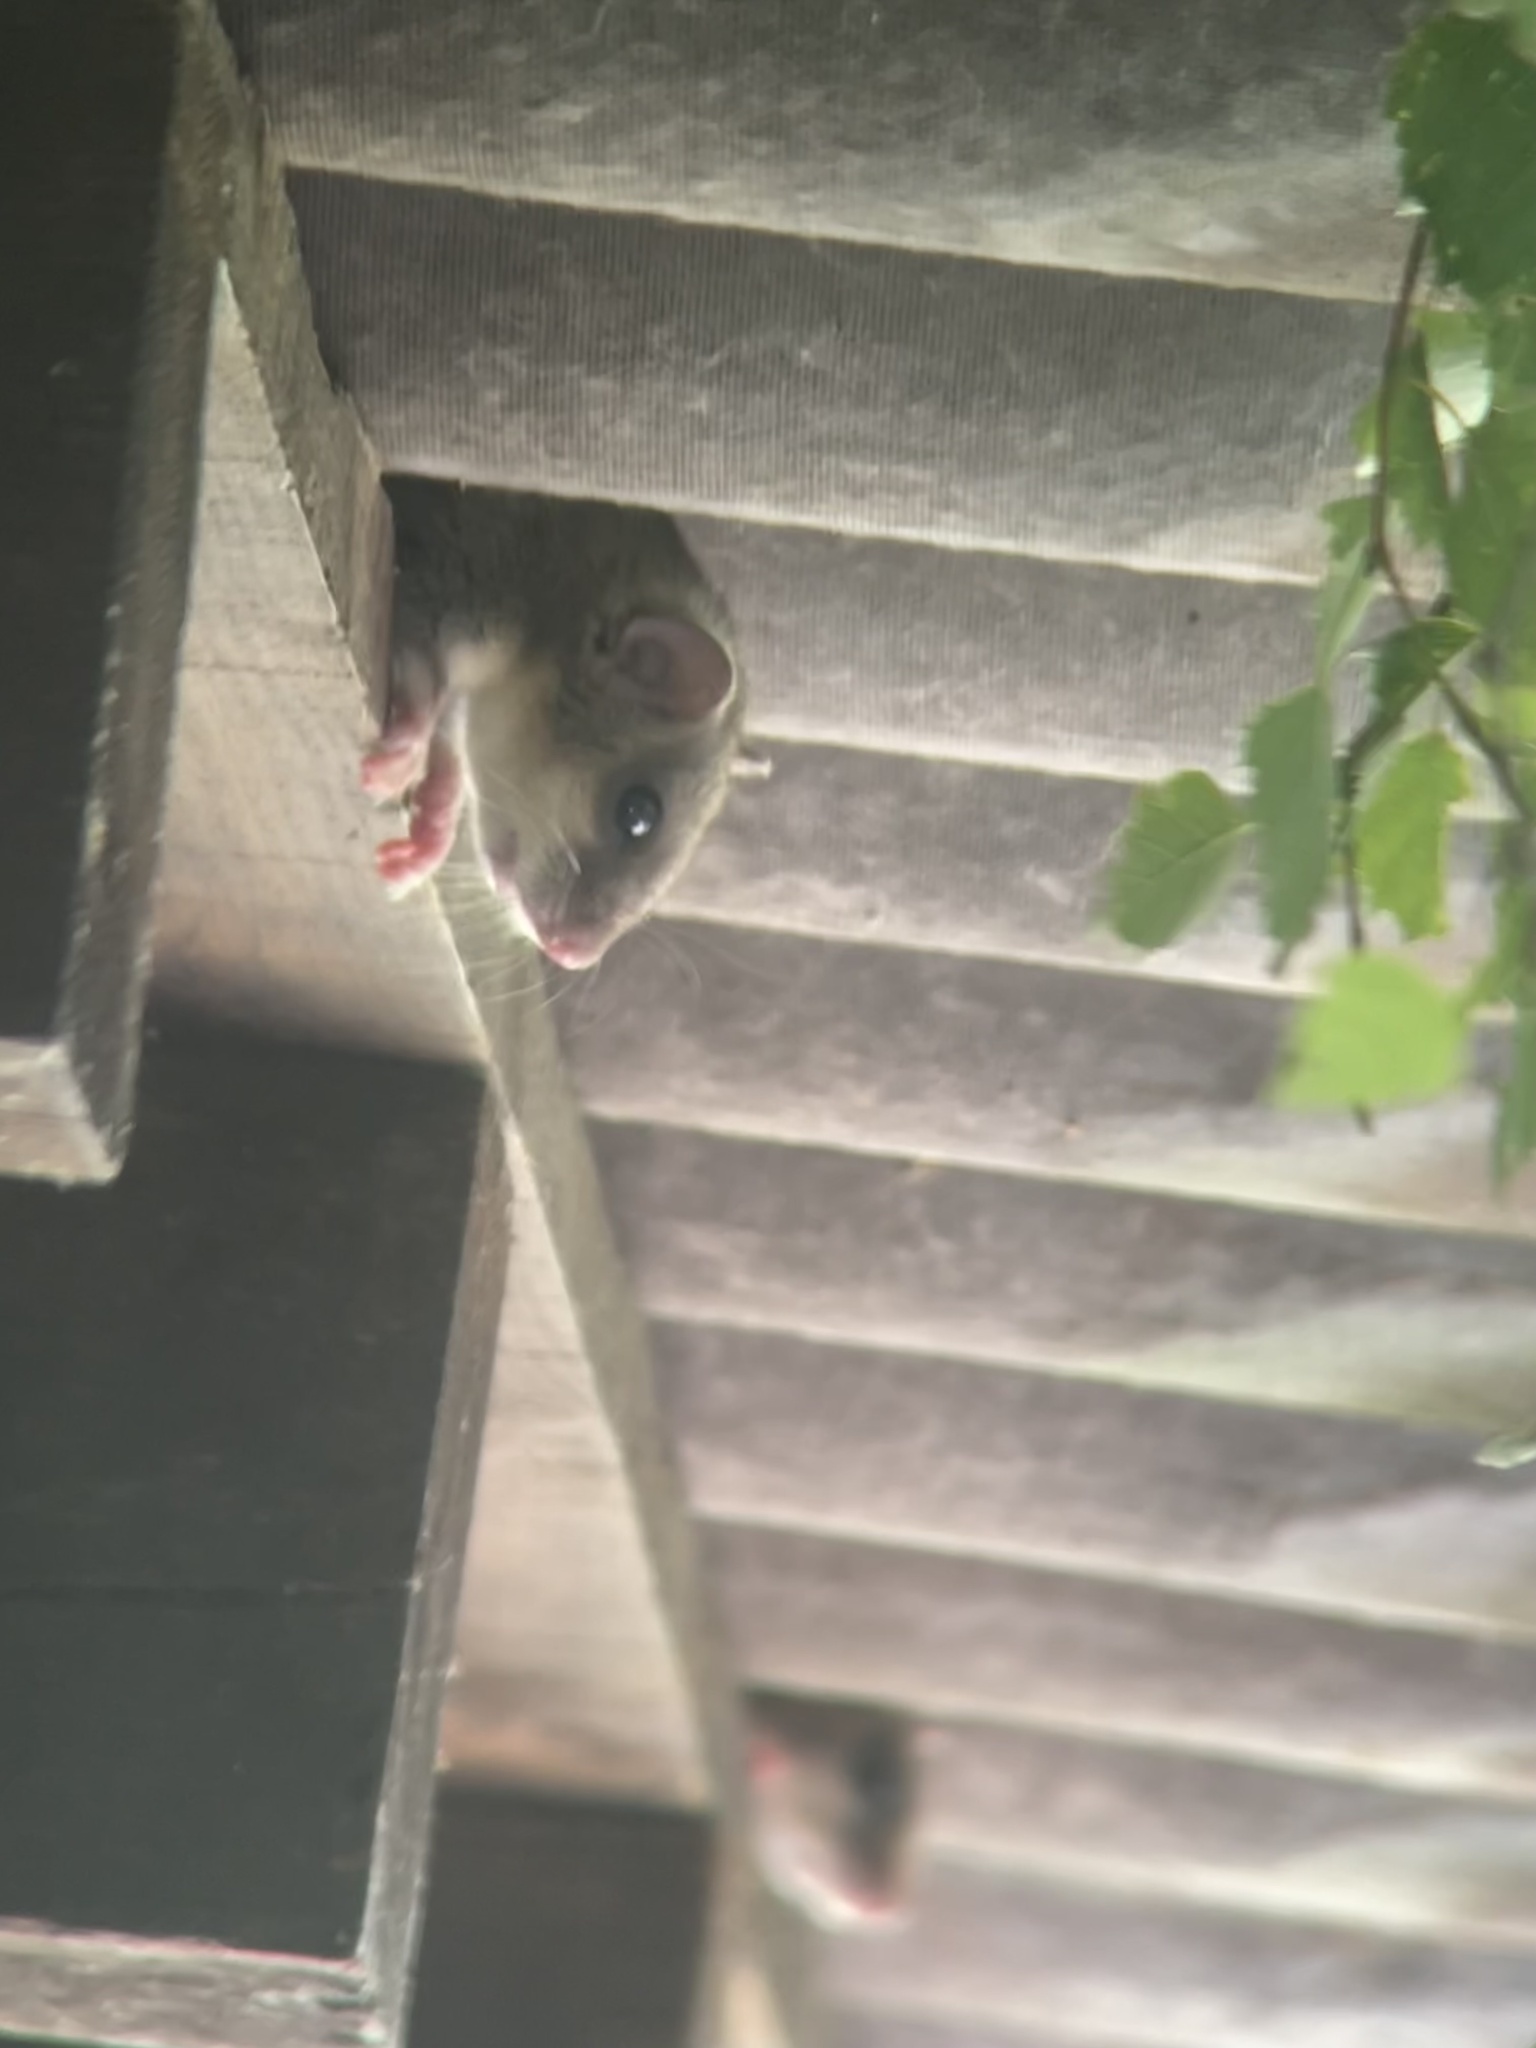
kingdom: Animalia
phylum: Chordata
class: Mammalia
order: Rodentia
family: Gliridae
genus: Glis
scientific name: Glis glis
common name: Fat dormouse
